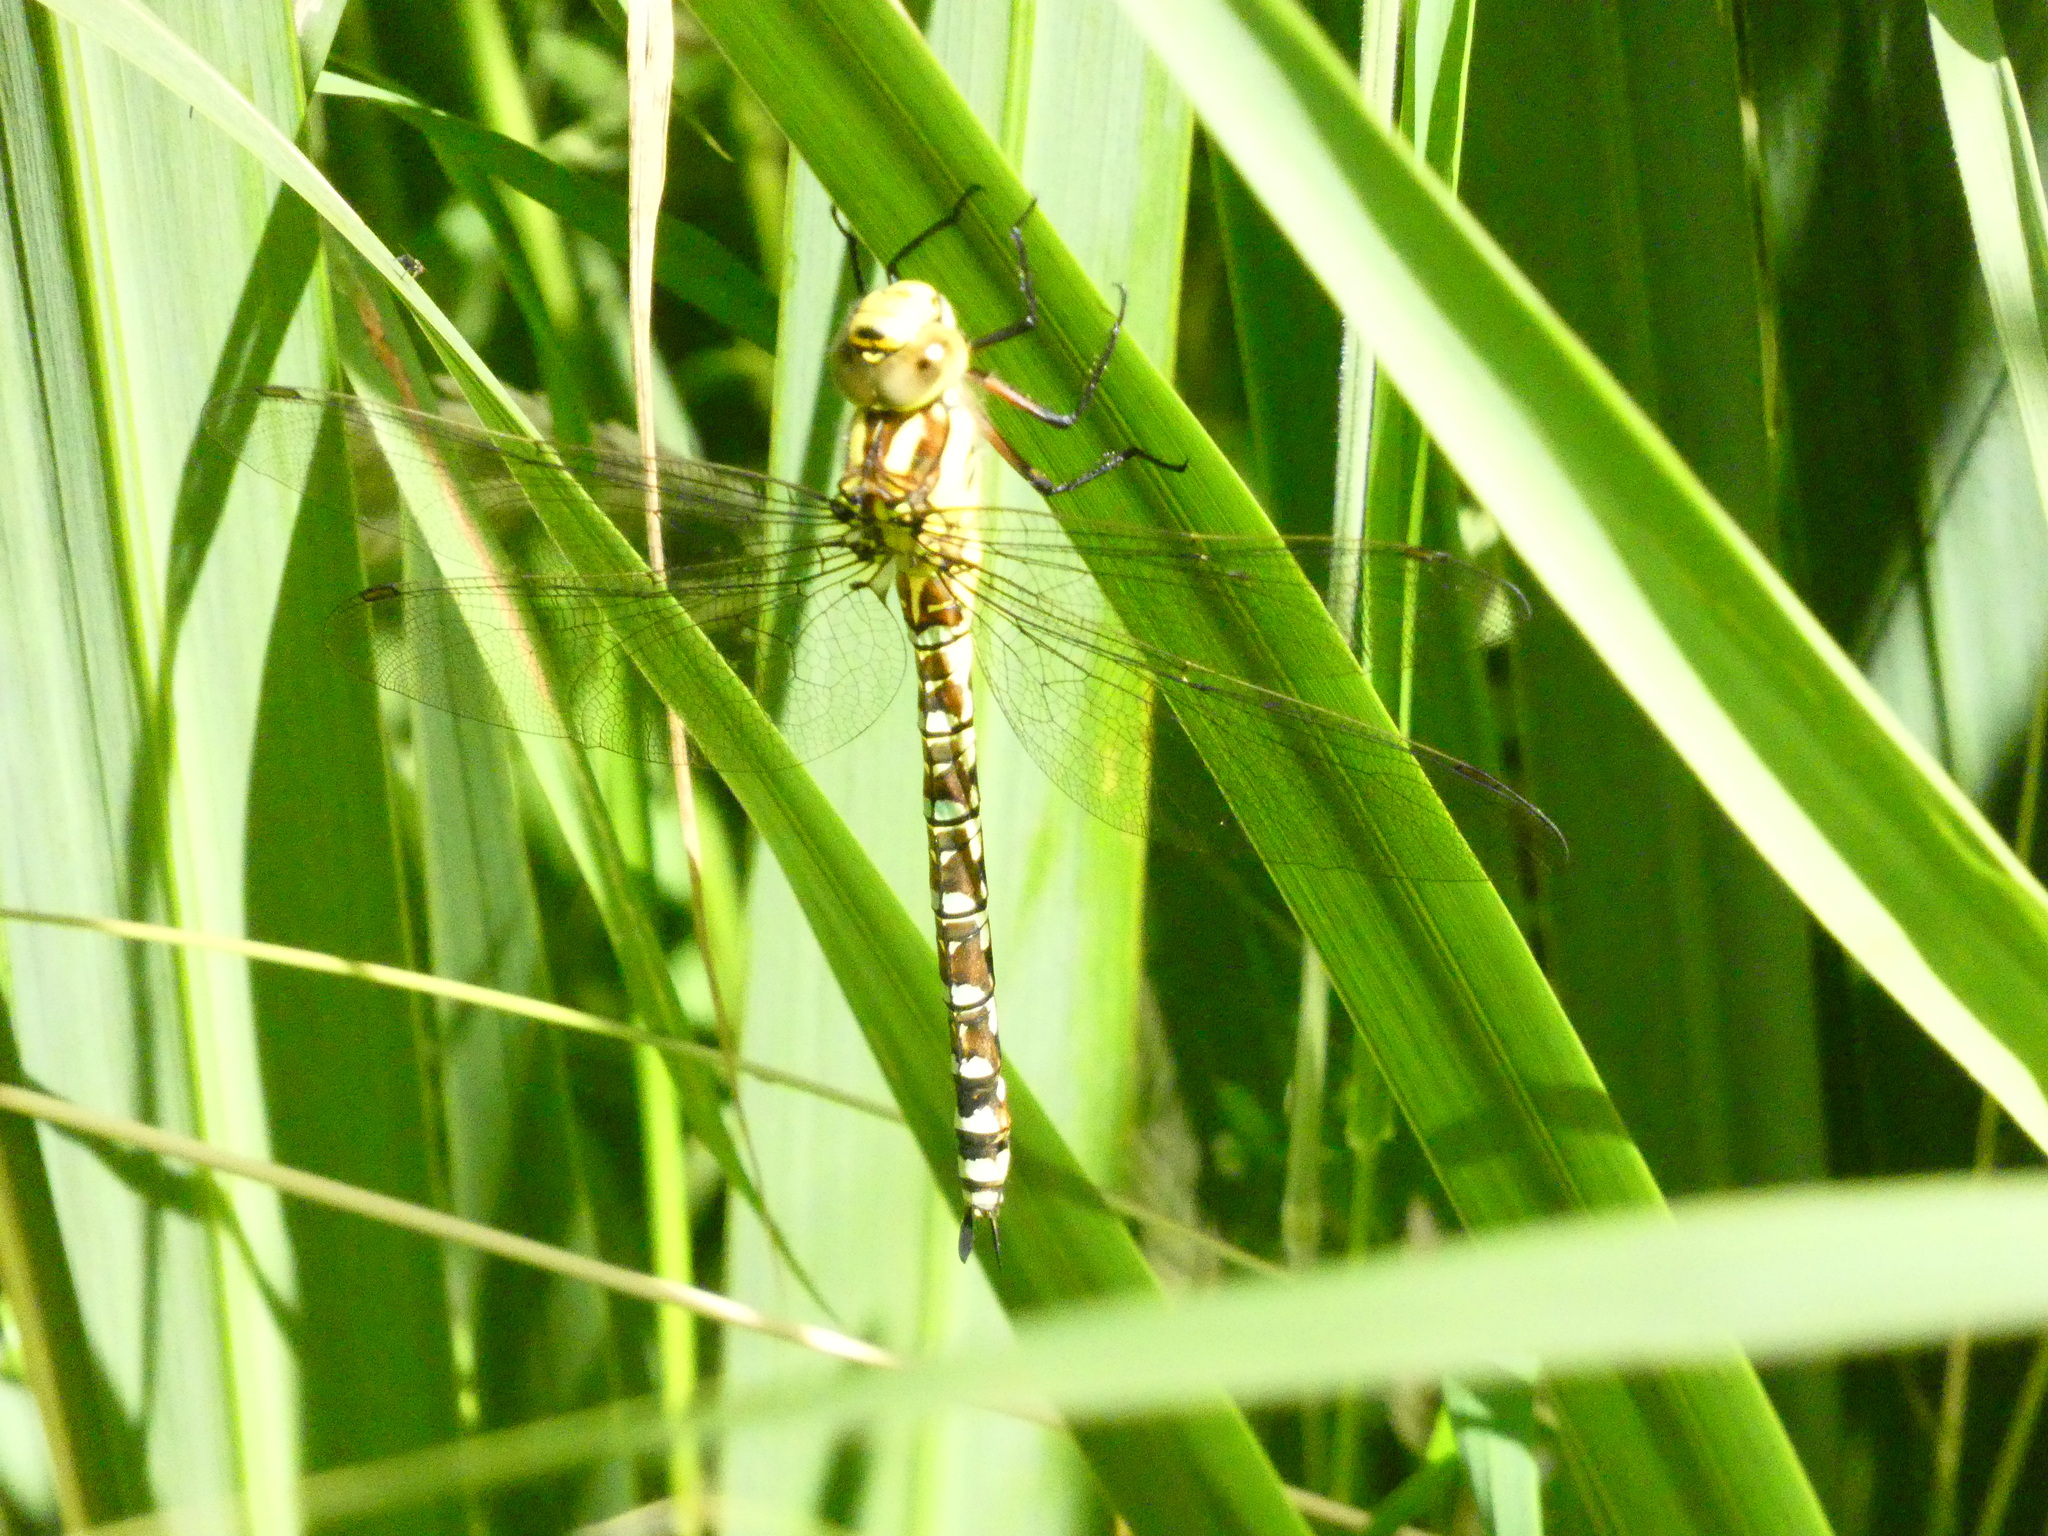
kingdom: Animalia
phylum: Arthropoda
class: Insecta
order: Odonata
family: Aeshnidae
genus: Aeshna
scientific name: Aeshna cyanea
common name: Southern hawker
